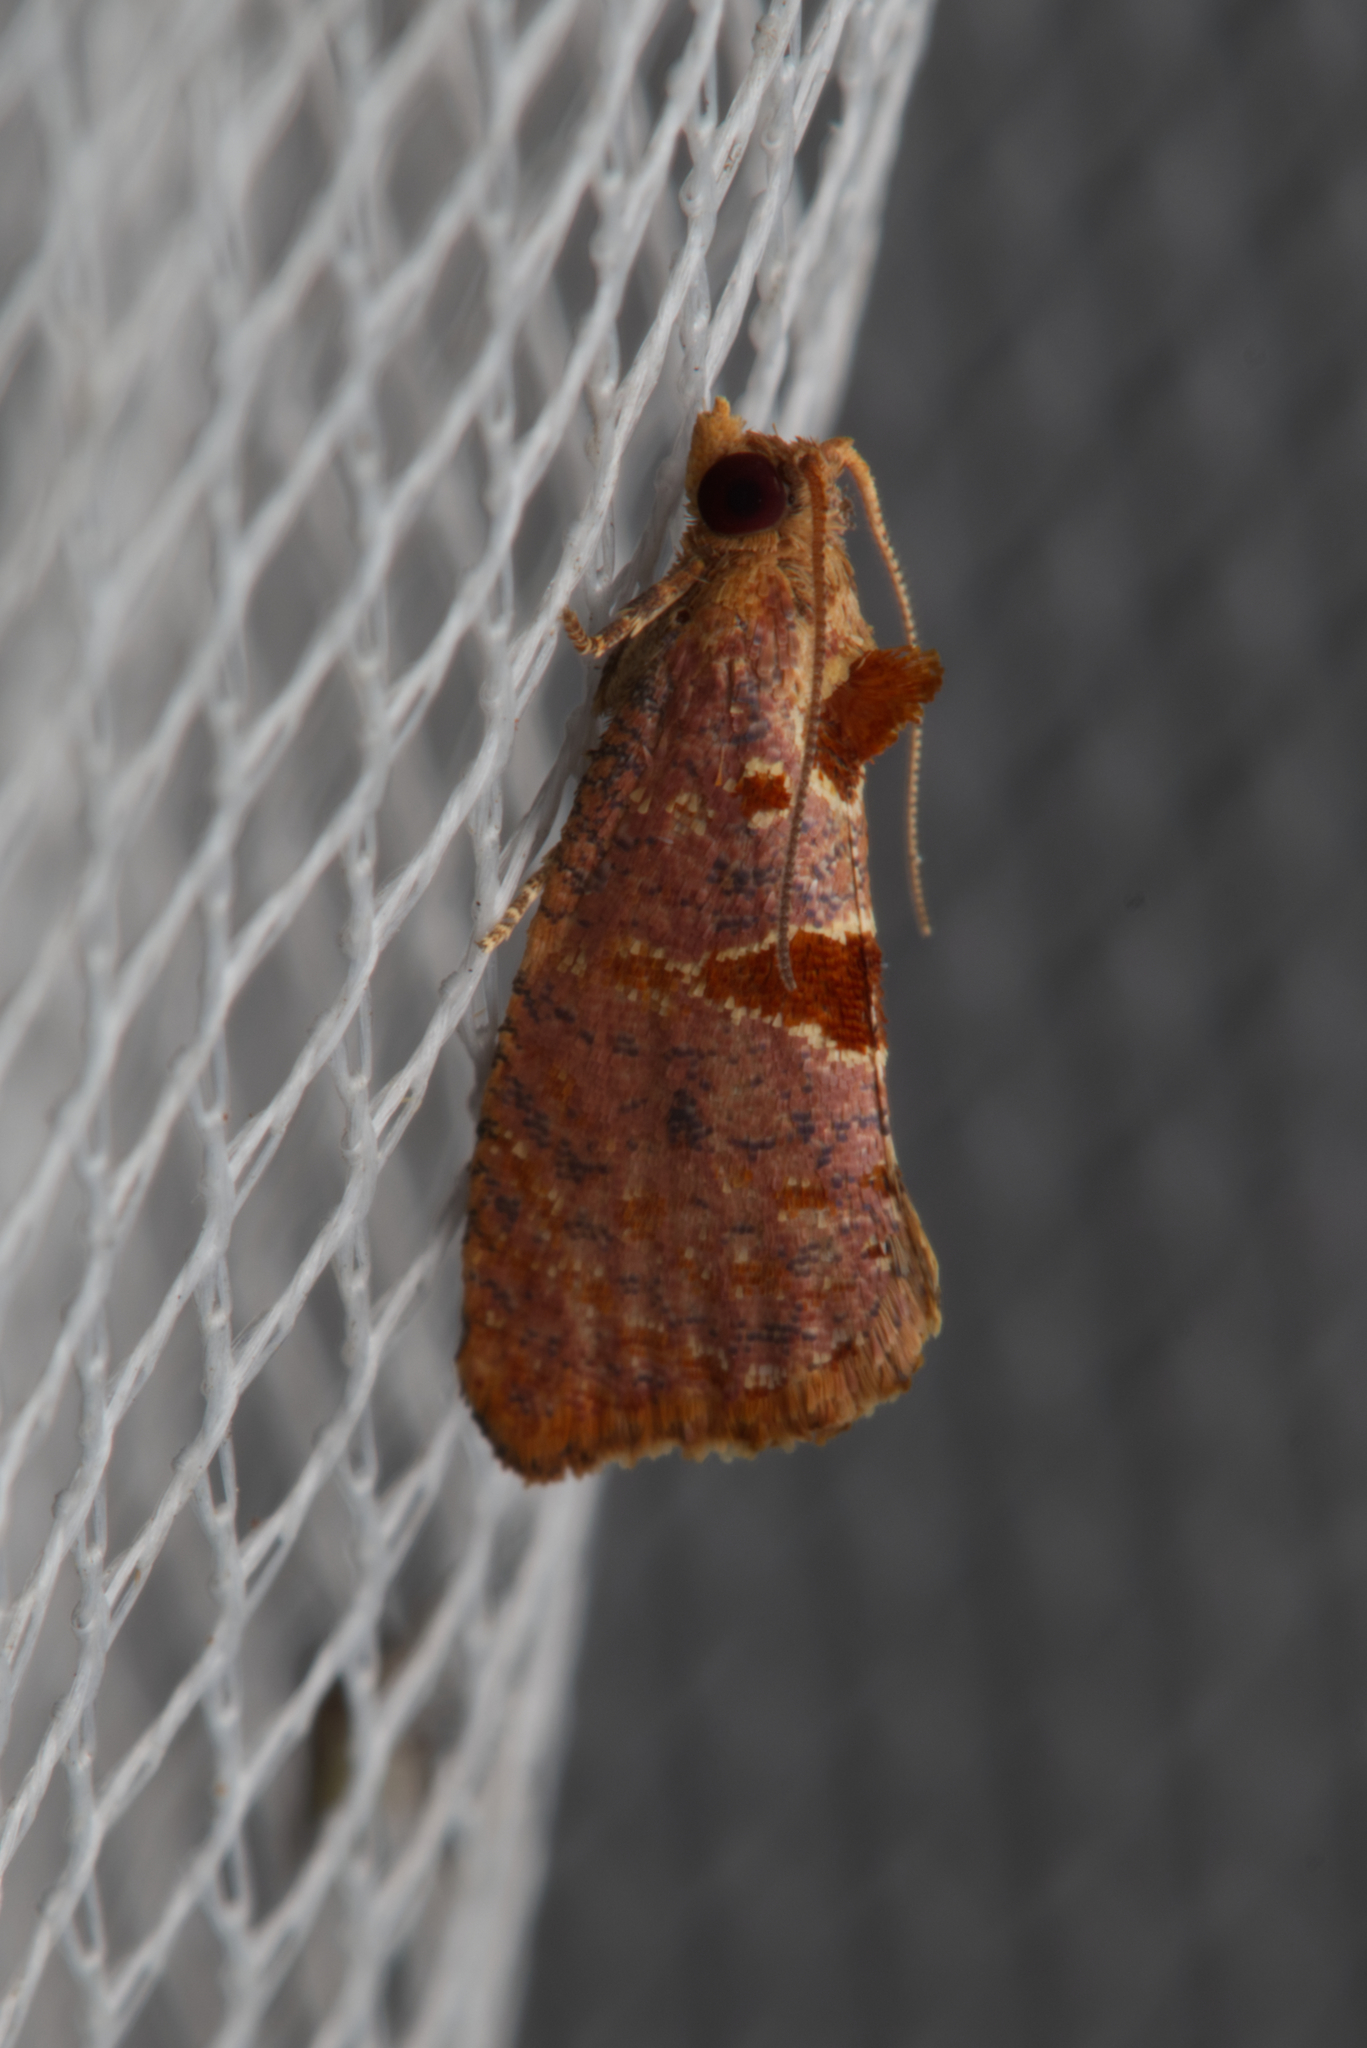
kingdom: Animalia
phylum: Arthropoda
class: Insecta
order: Lepidoptera
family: Tortricidae
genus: Glyphidoptera
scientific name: Glyphidoptera insignana
